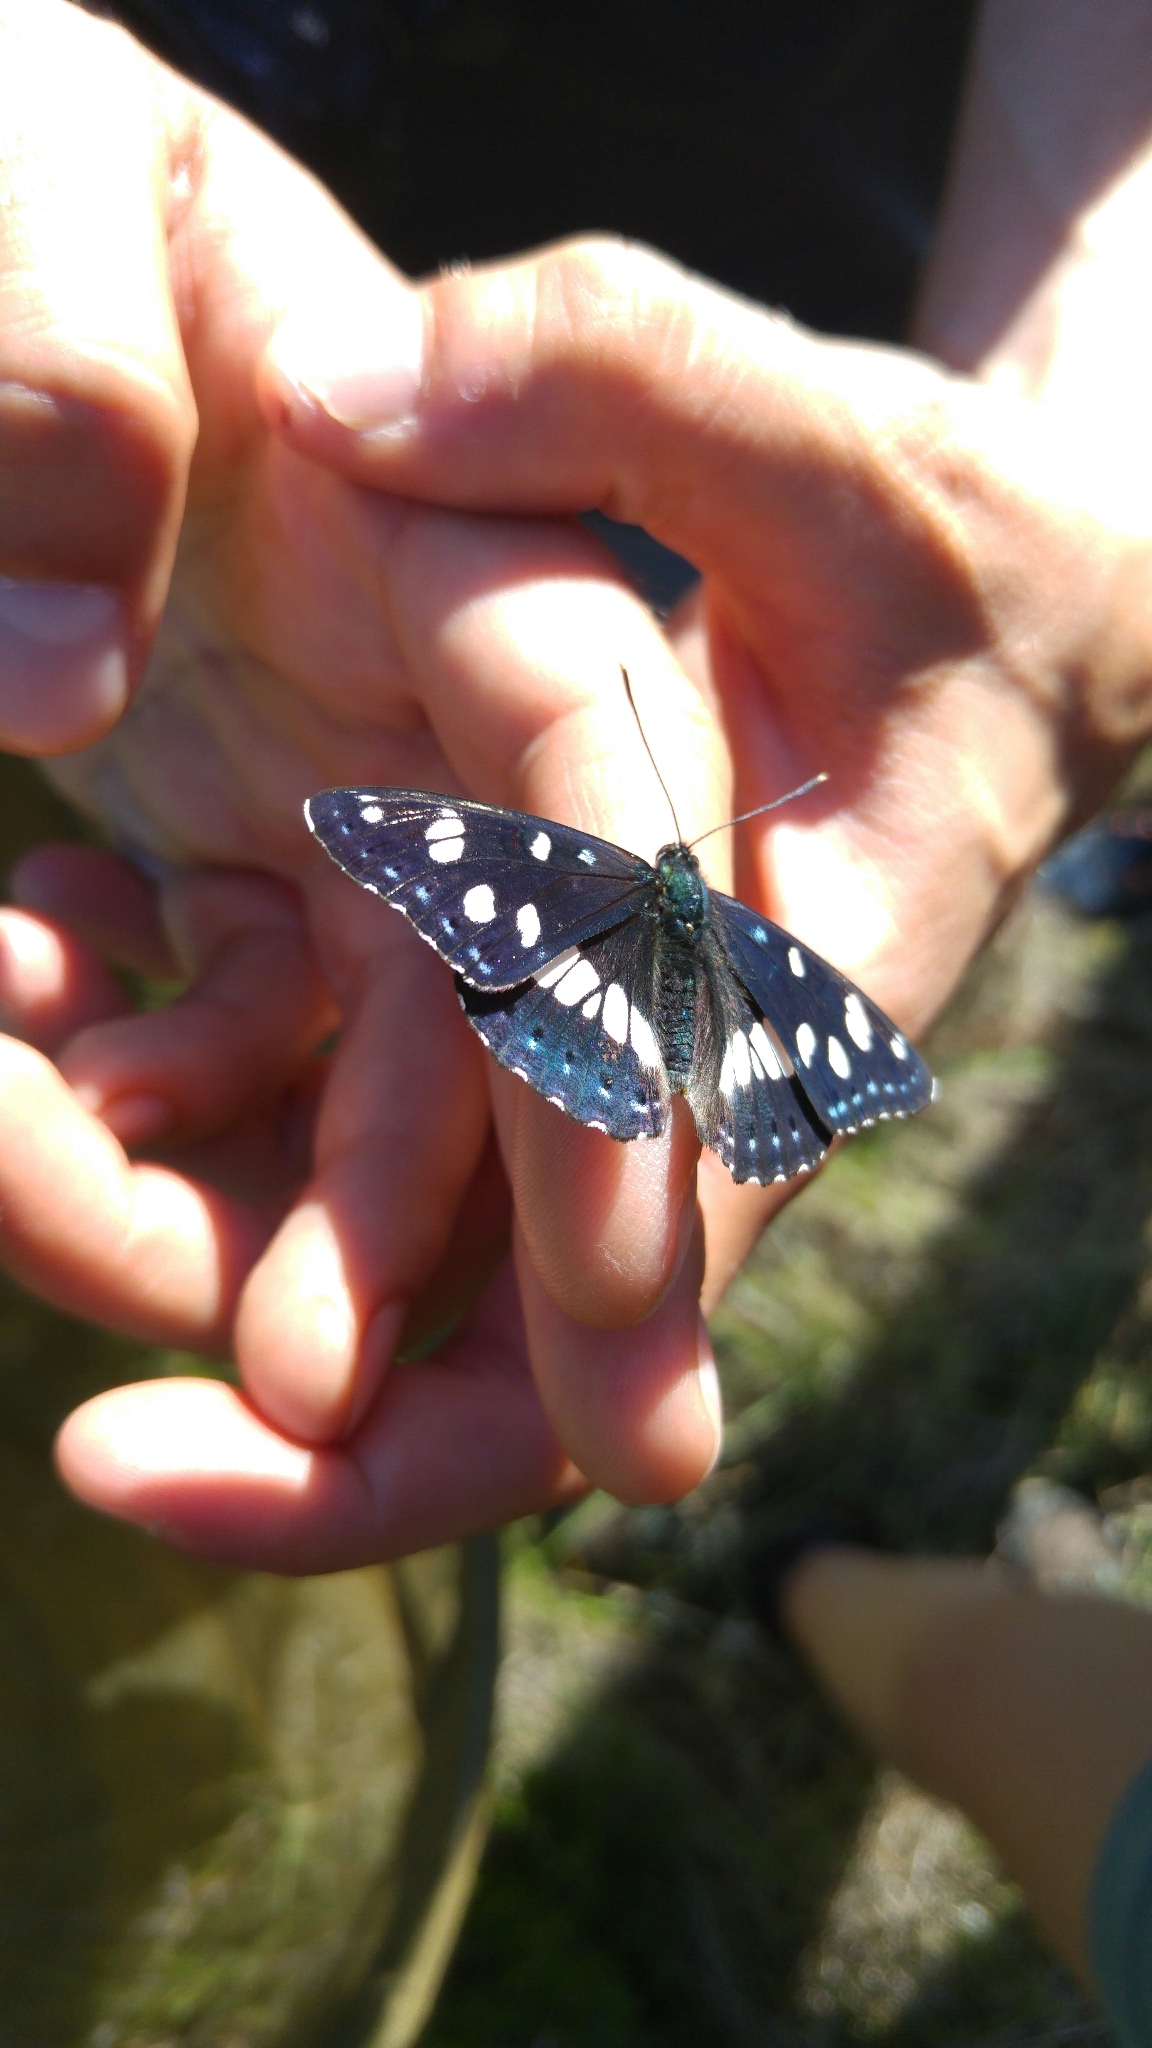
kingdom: Animalia
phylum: Arthropoda
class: Insecta
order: Lepidoptera
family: Nymphalidae
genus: Limenitis
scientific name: Limenitis reducta
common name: Southern white admiral
